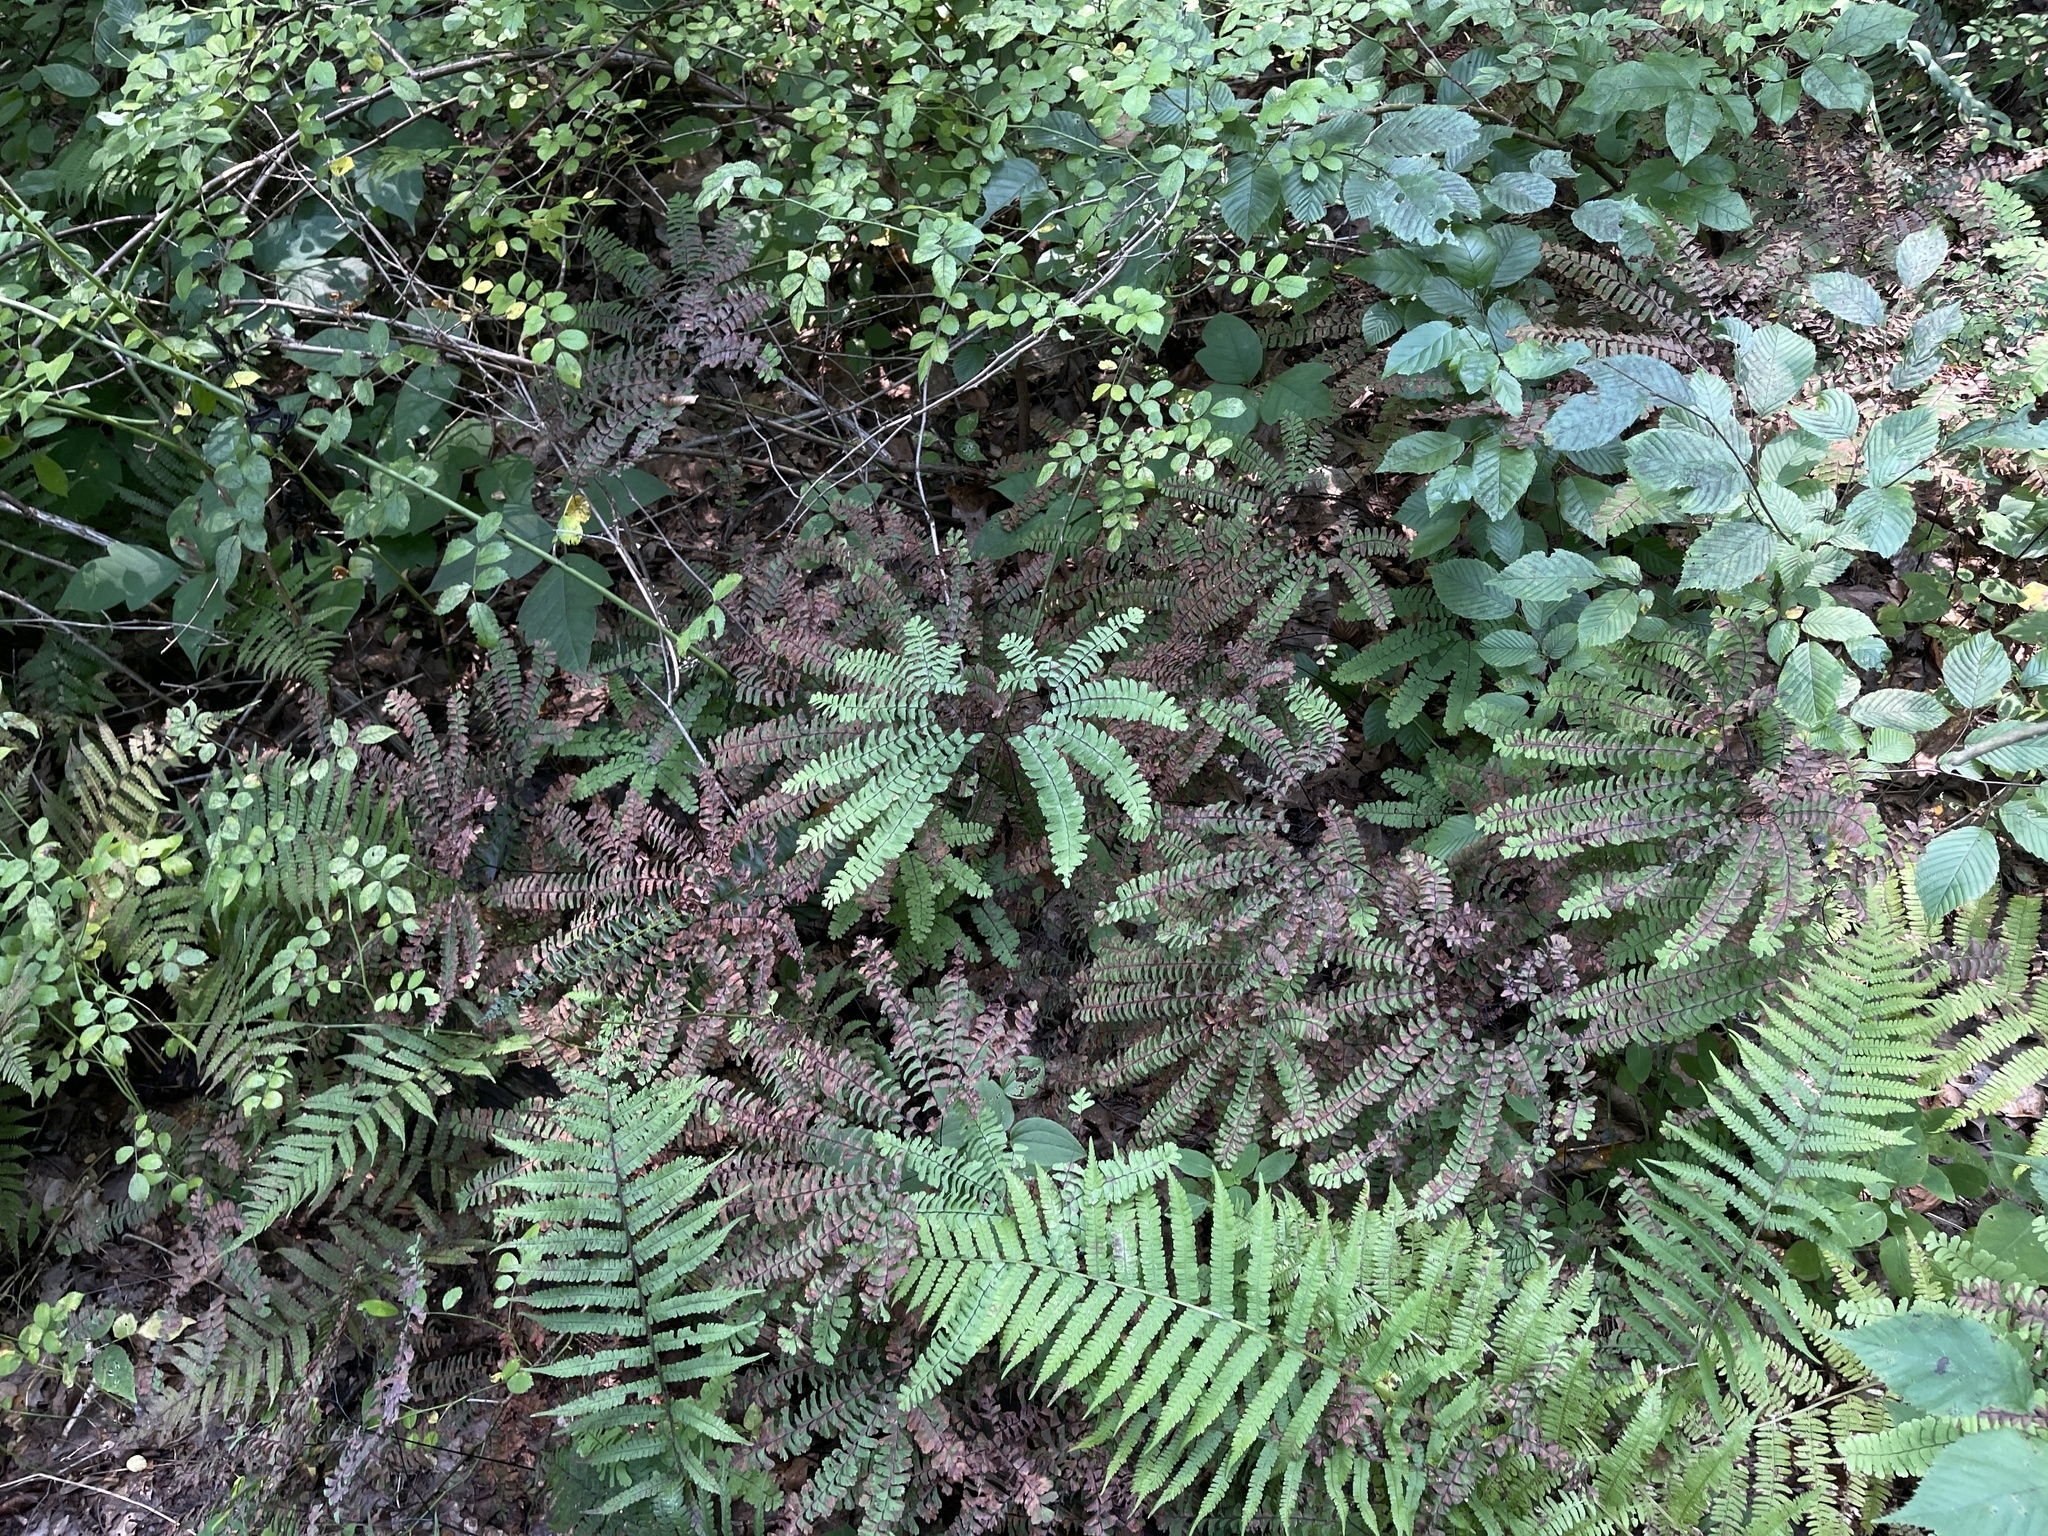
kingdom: Plantae
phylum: Tracheophyta
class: Polypodiopsida
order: Polypodiales
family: Pteridaceae
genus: Adiantum
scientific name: Adiantum pedatum
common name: Five-finger fern
